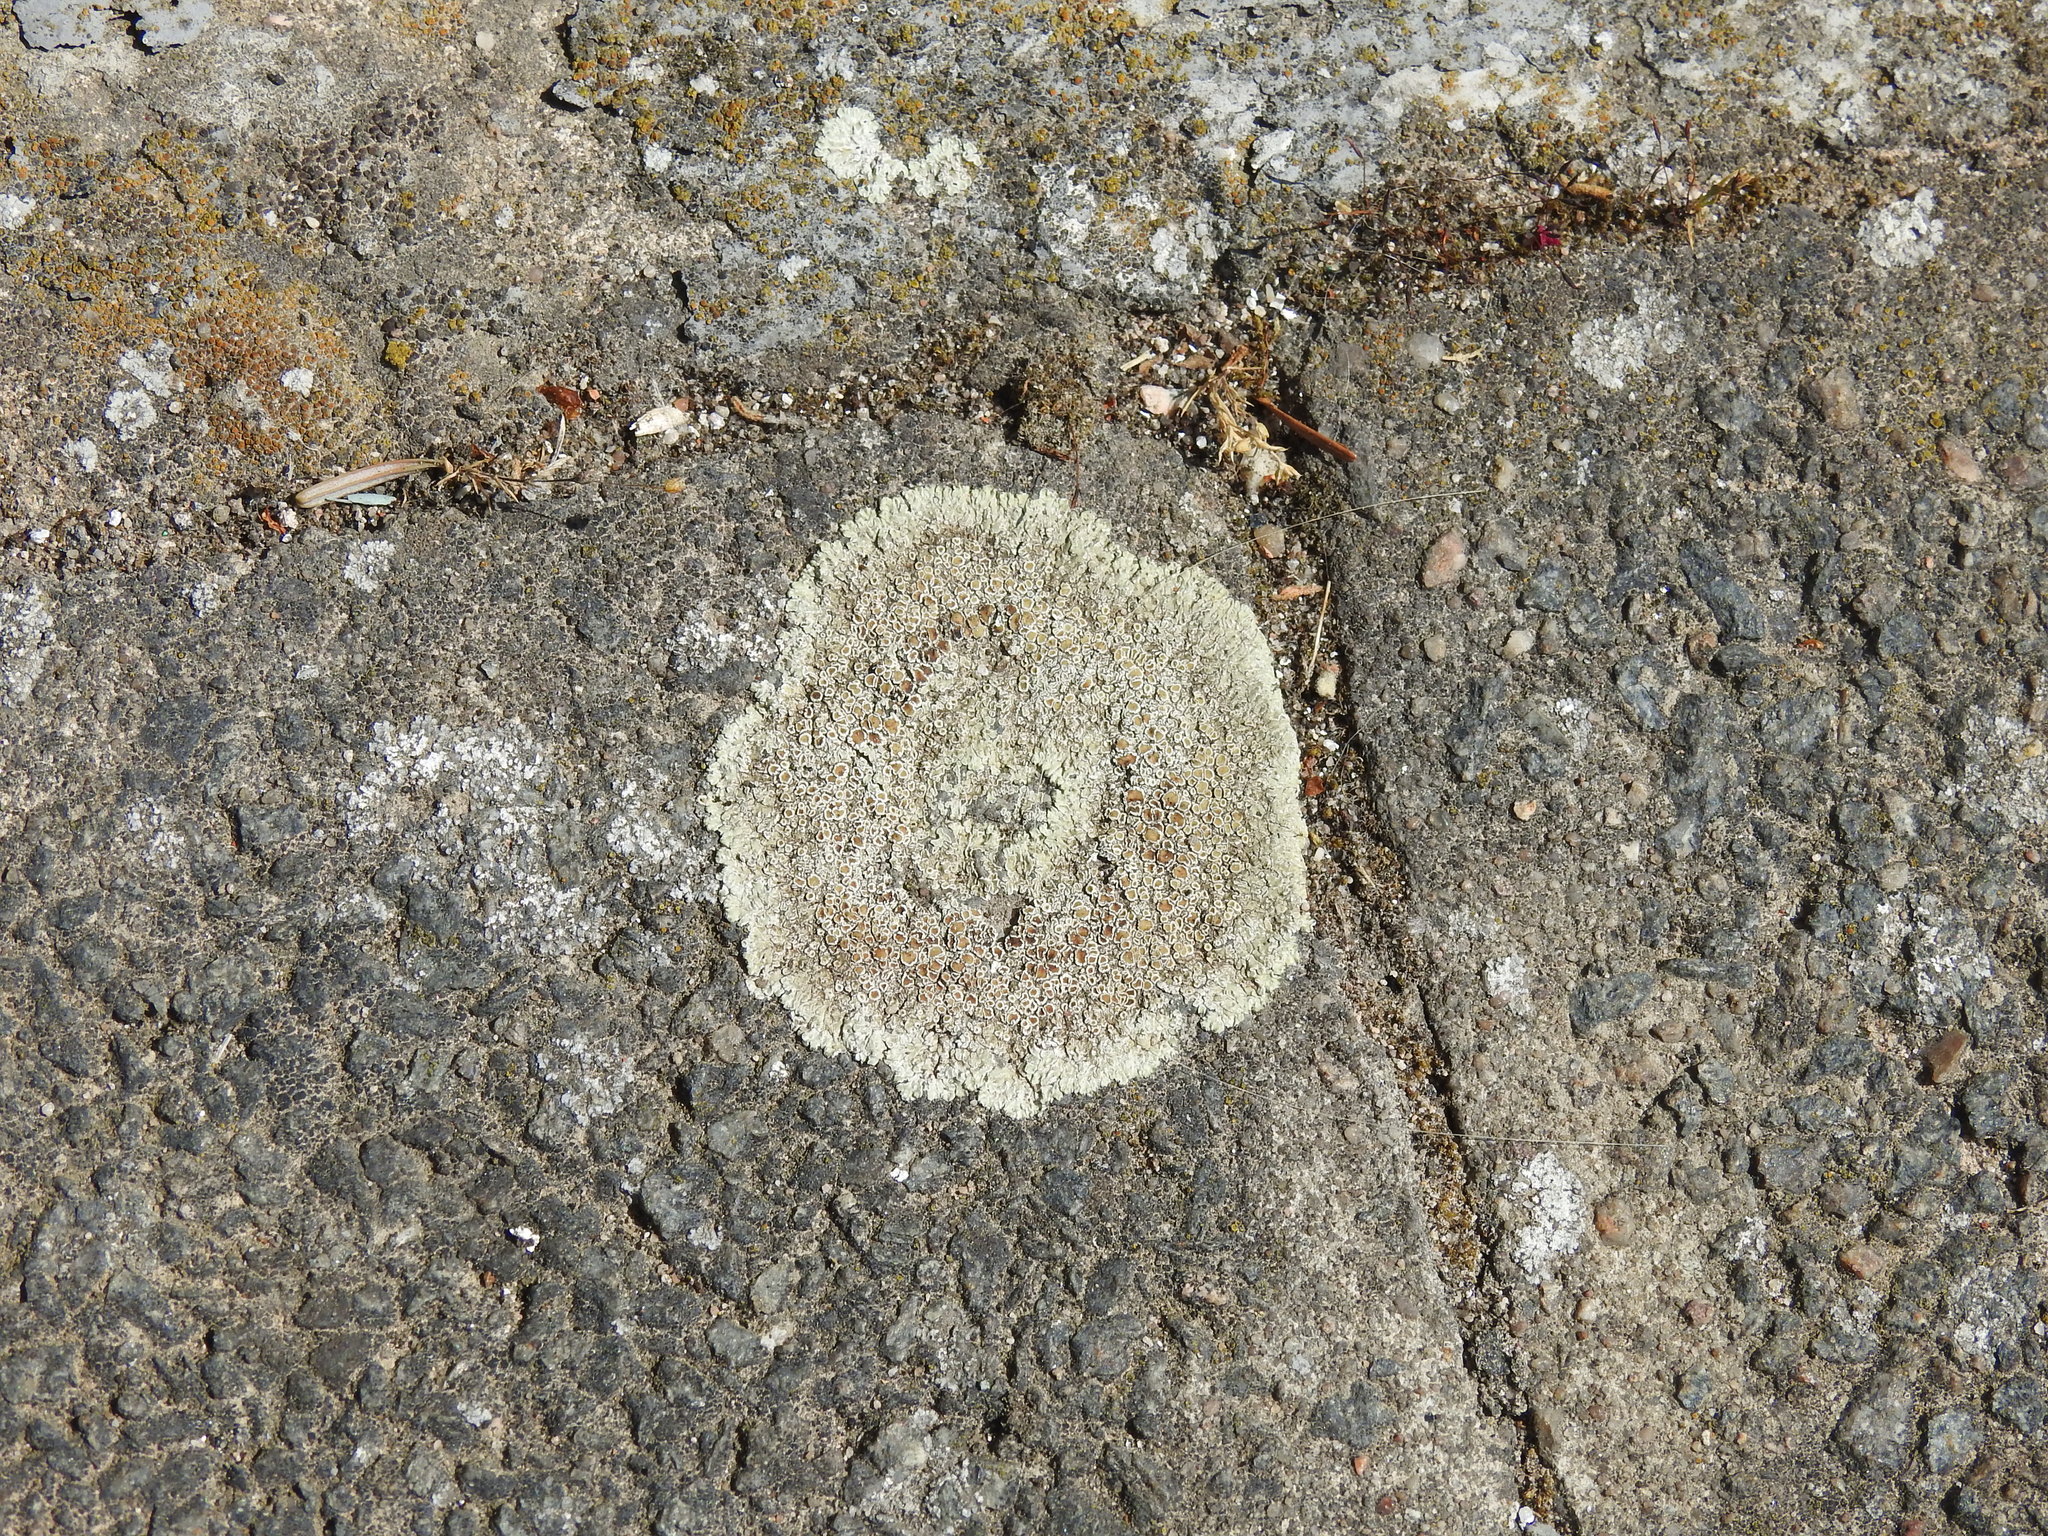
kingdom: Fungi
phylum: Ascomycota
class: Lecanoromycetes
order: Lecanorales
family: Lecanoraceae
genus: Protoparmeliopsis
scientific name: Protoparmeliopsis muralis
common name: Stonewall rim lichen
